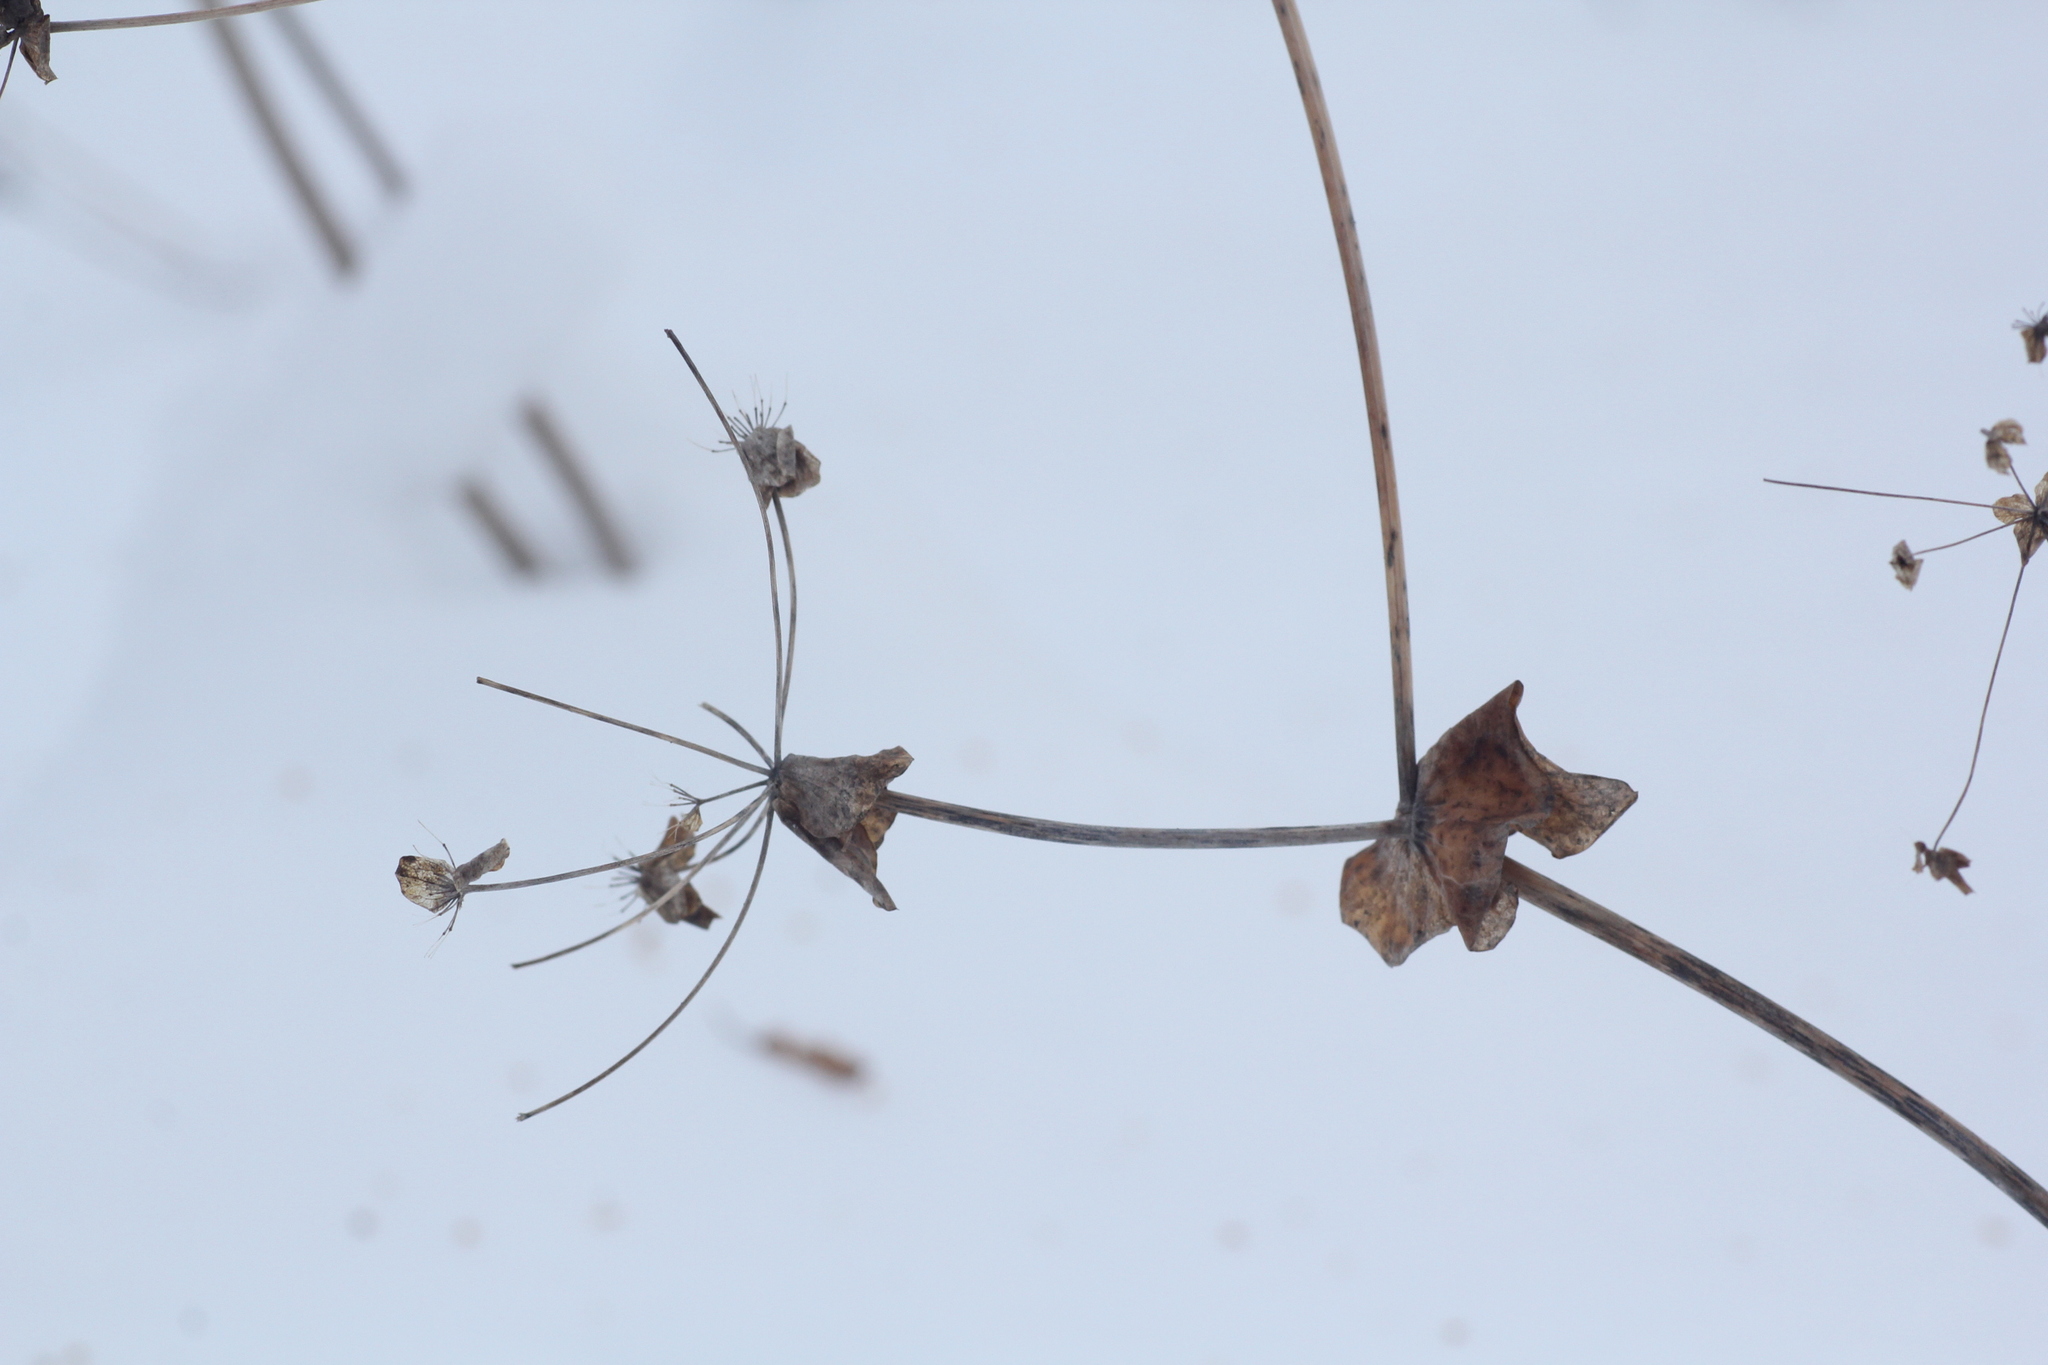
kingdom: Plantae
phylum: Tracheophyta
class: Magnoliopsida
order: Apiales
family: Apiaceae
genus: Bupleurum
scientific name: Bupleurum aureum
